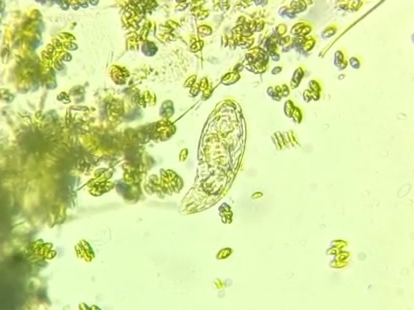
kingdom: Animalia
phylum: Rotifera
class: Eurotatoria
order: Ploima
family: Lecanidae
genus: Lecane
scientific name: Lecane
